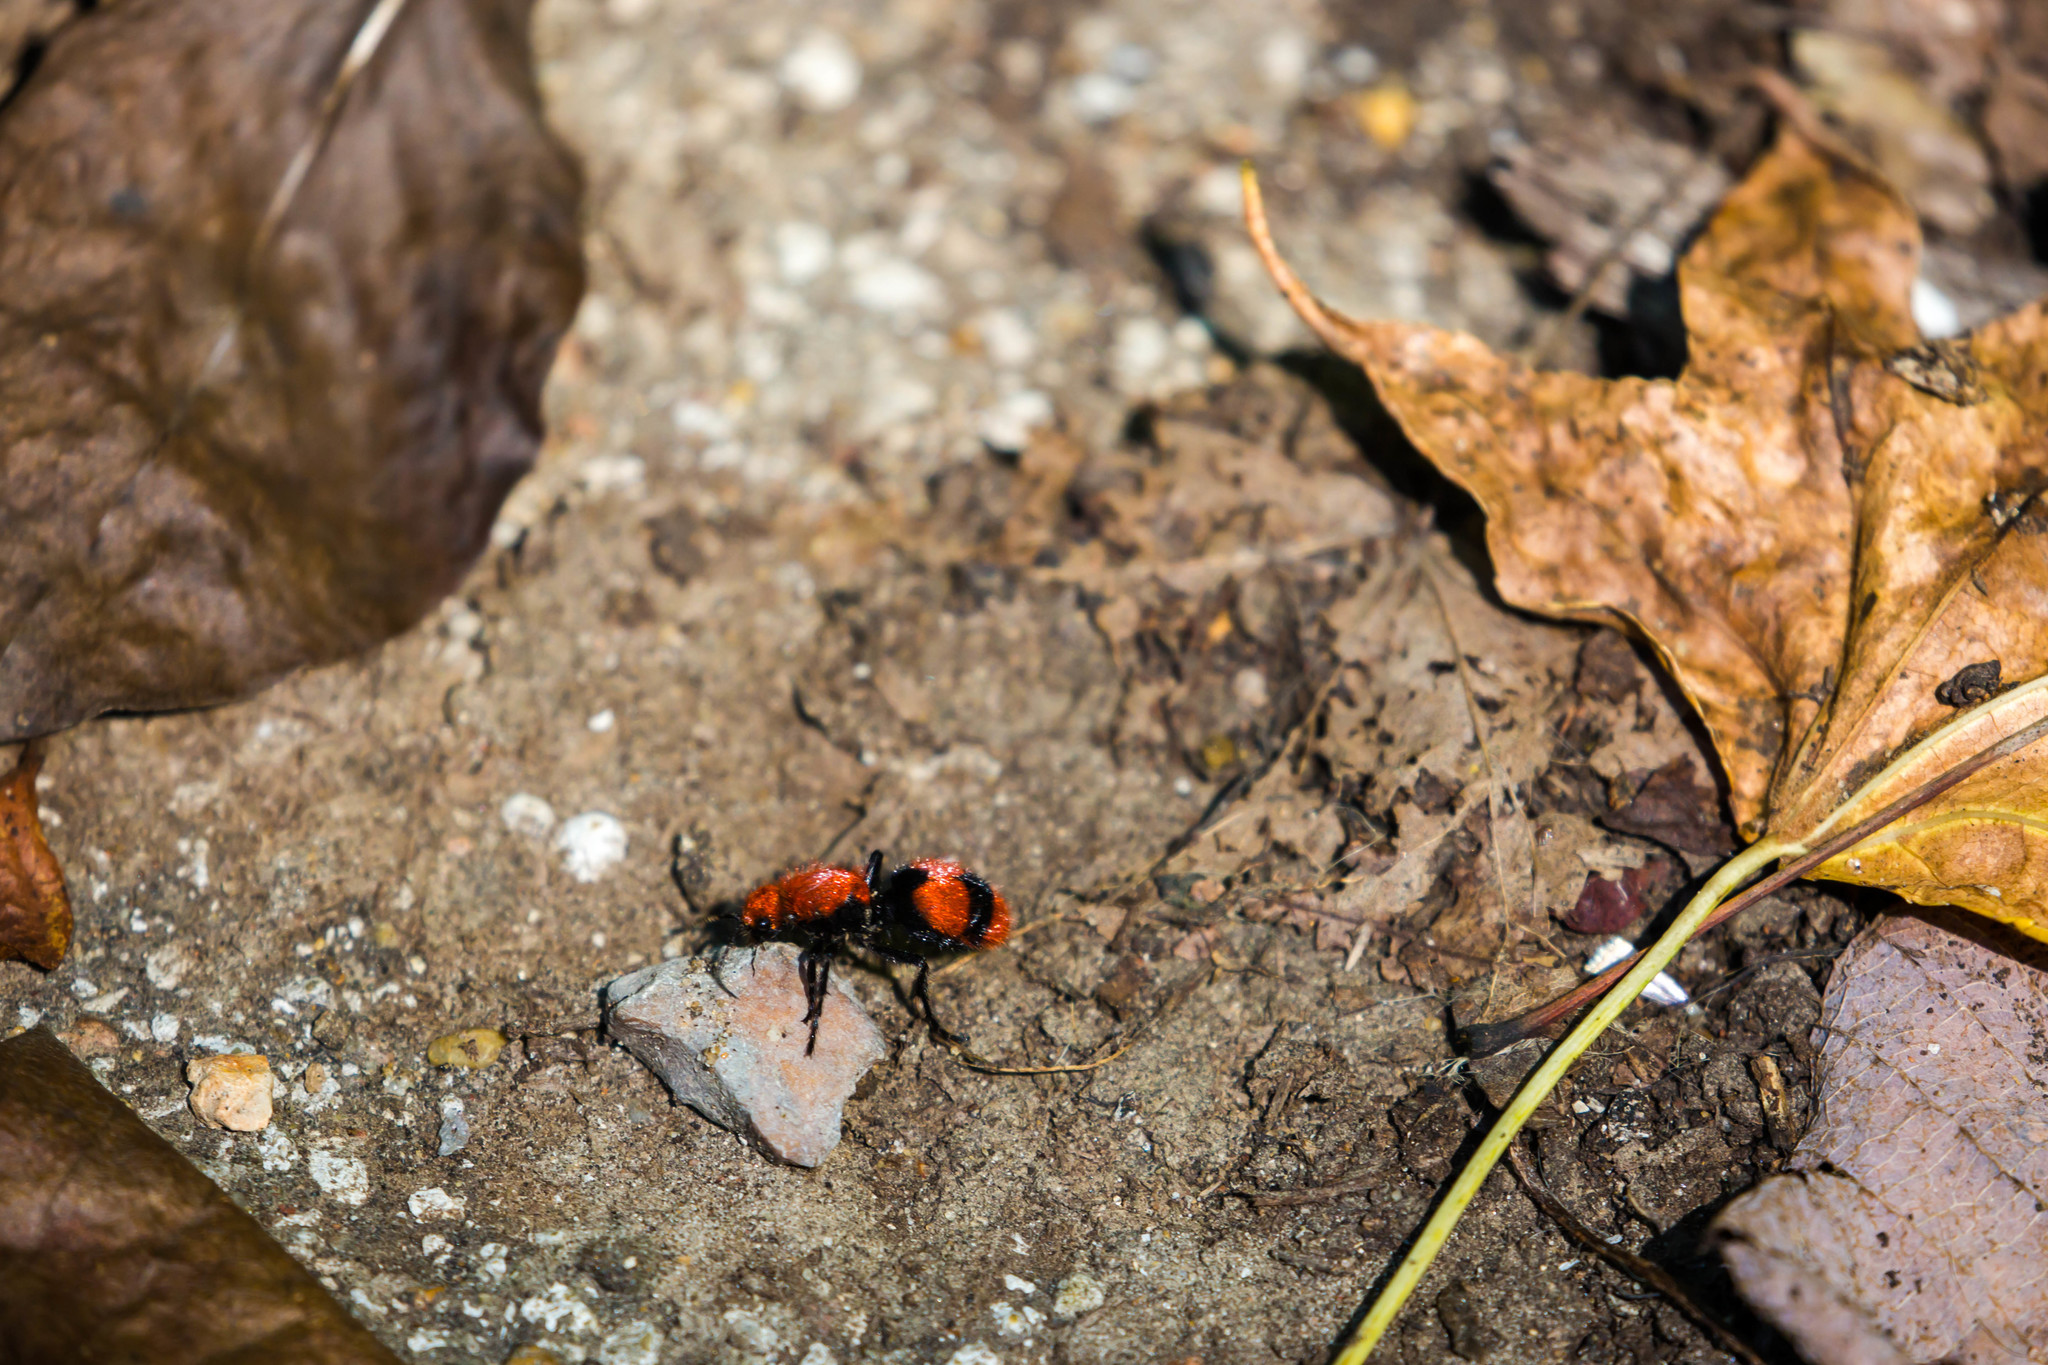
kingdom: Animalia
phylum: Arthropoda
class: Insecta
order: Hymenoptera
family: Mutillidae
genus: Dasymutilla
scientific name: Dasymutilla occidentalis
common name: Common eastern velvet ant
